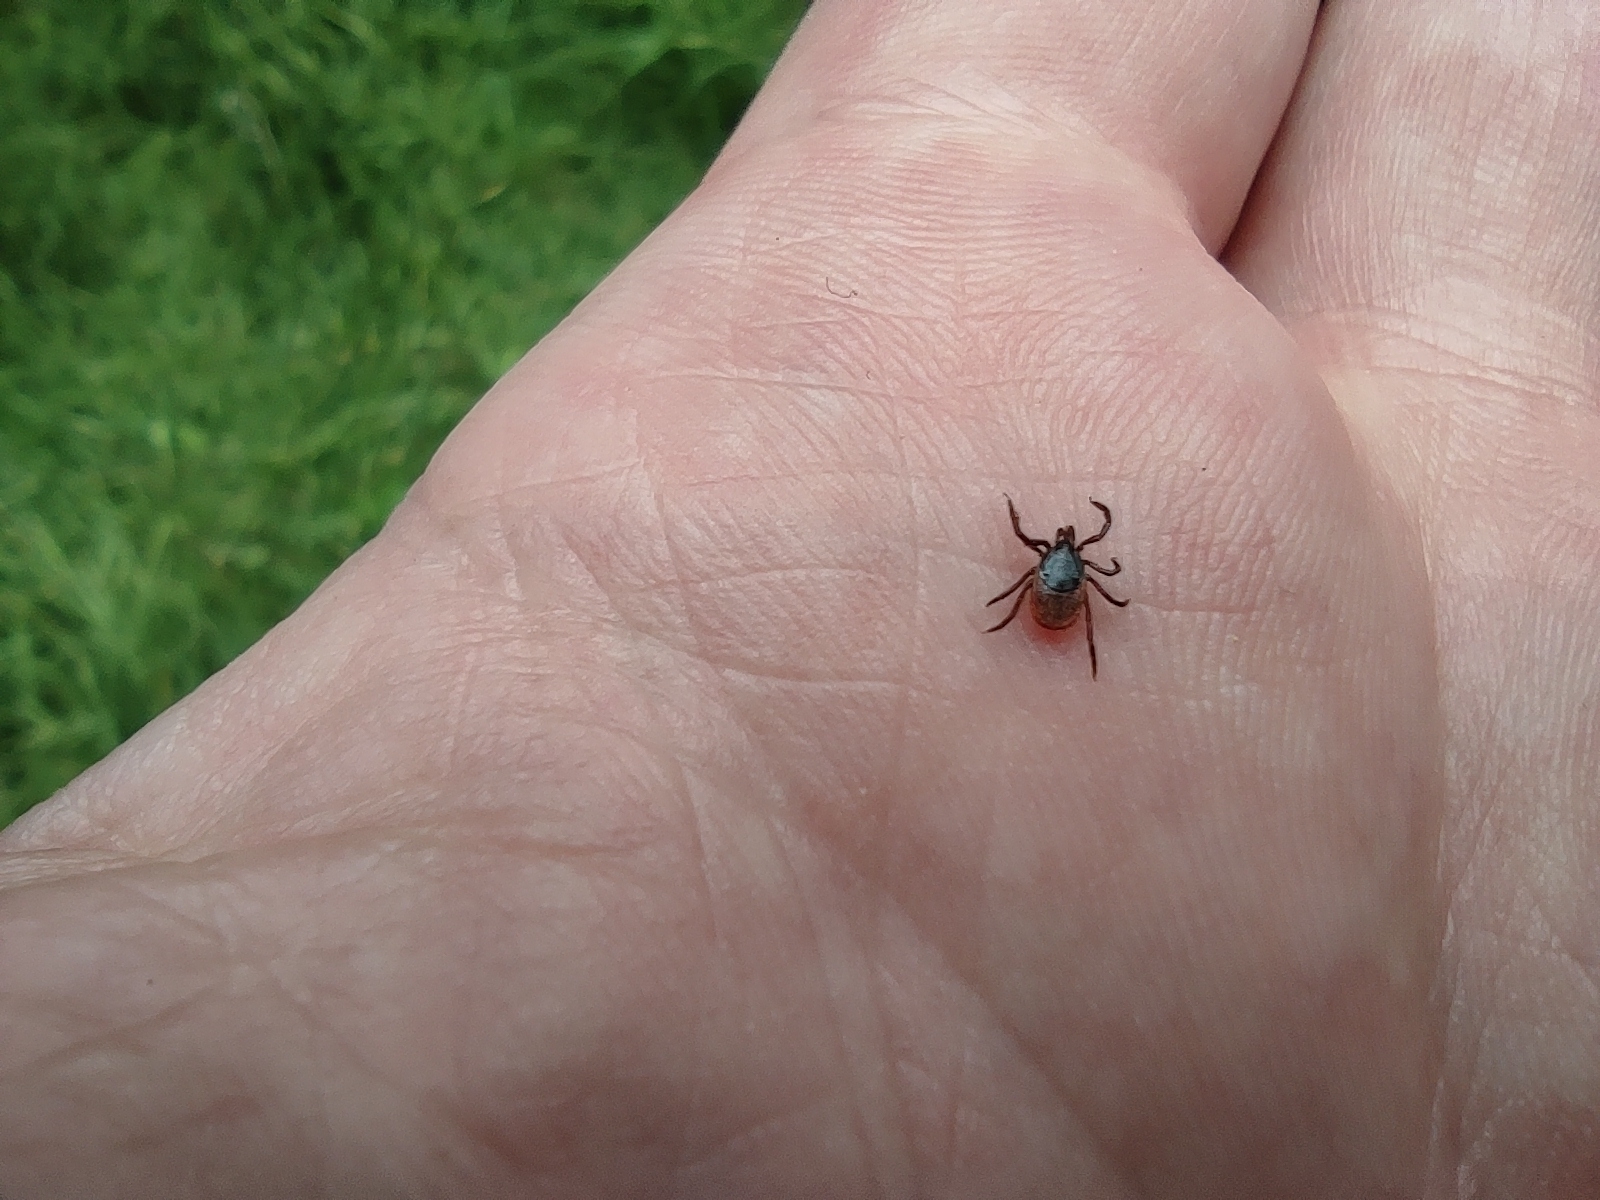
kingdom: Animalia
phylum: Arthropoda
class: Arachnida
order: Ixodida
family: Ixodidae
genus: Ixodes
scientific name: Ixodes ricinus
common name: Castor bean tick
